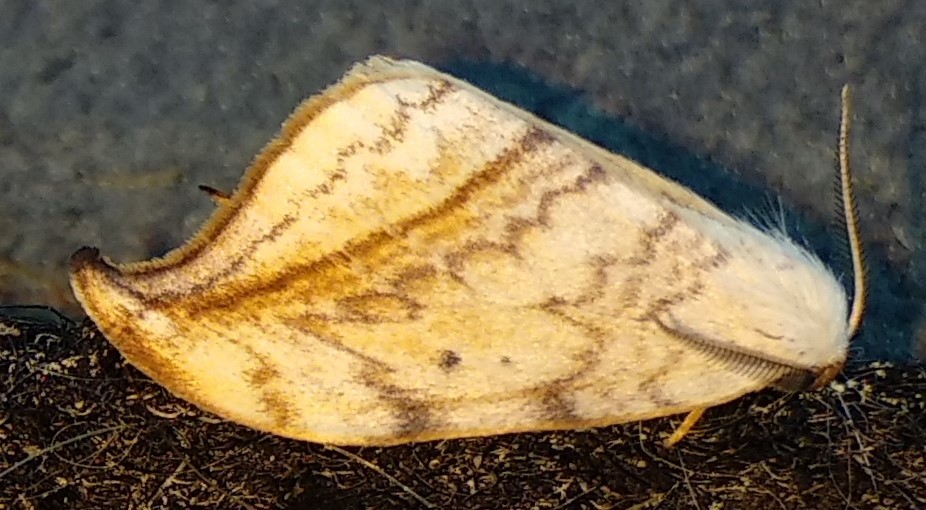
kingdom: Animalia
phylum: Arthropoda
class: Insecta
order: Lepidoptera
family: Drepanidae
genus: Drepana
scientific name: Drepana arcuata
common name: Arched hooktip moth
